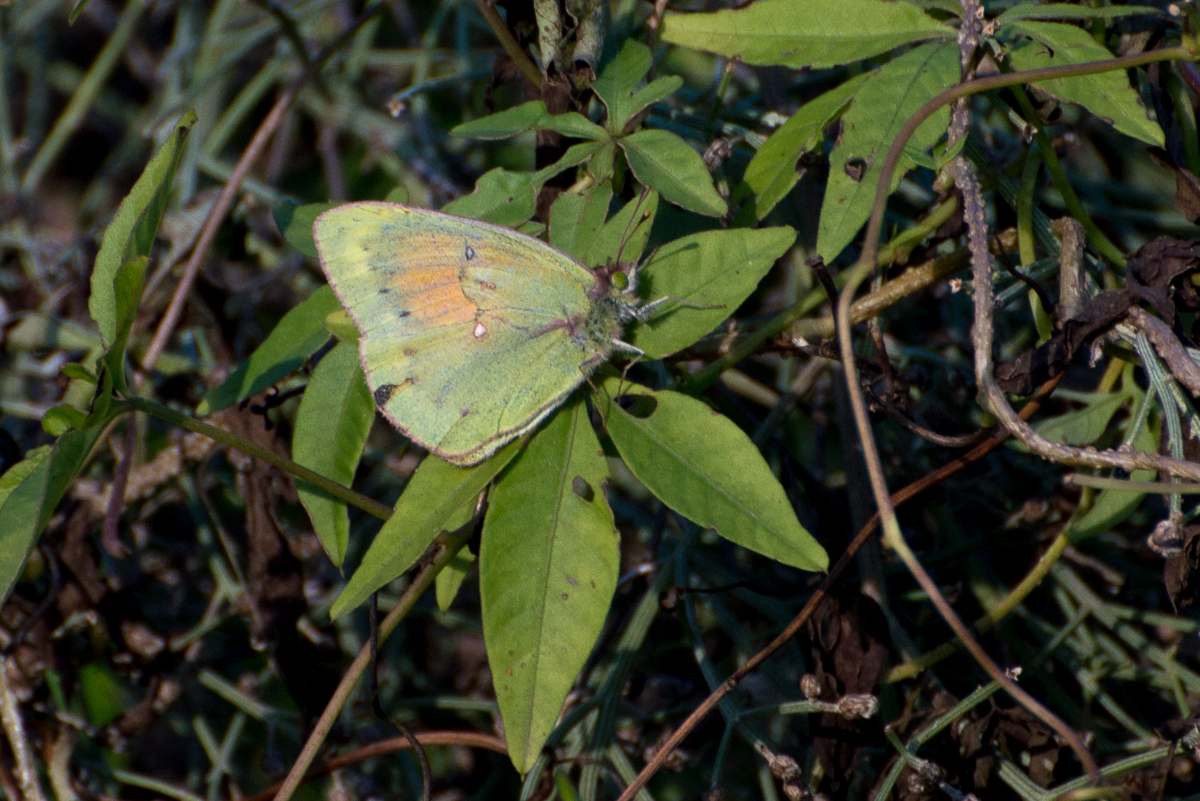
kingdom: Animalia
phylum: Arthropoda
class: Insecta
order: Lepidoptera
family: Pieridae
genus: Colias
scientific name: Colias lesbia
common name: Lesbia clouded yellow
